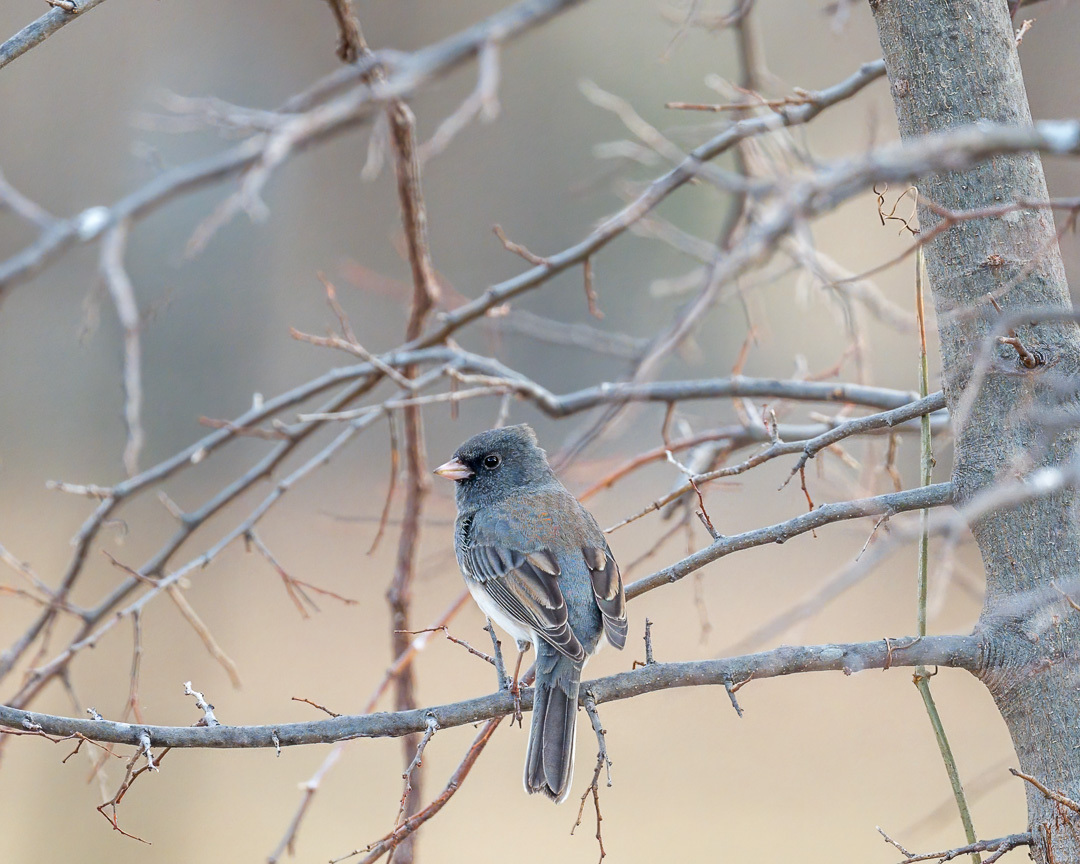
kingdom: Animalia
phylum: Chordata
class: Aves
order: Passeriformes
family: Passerellidae
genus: Junco
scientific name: Junco hyemalis
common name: Dark-eyed junco
